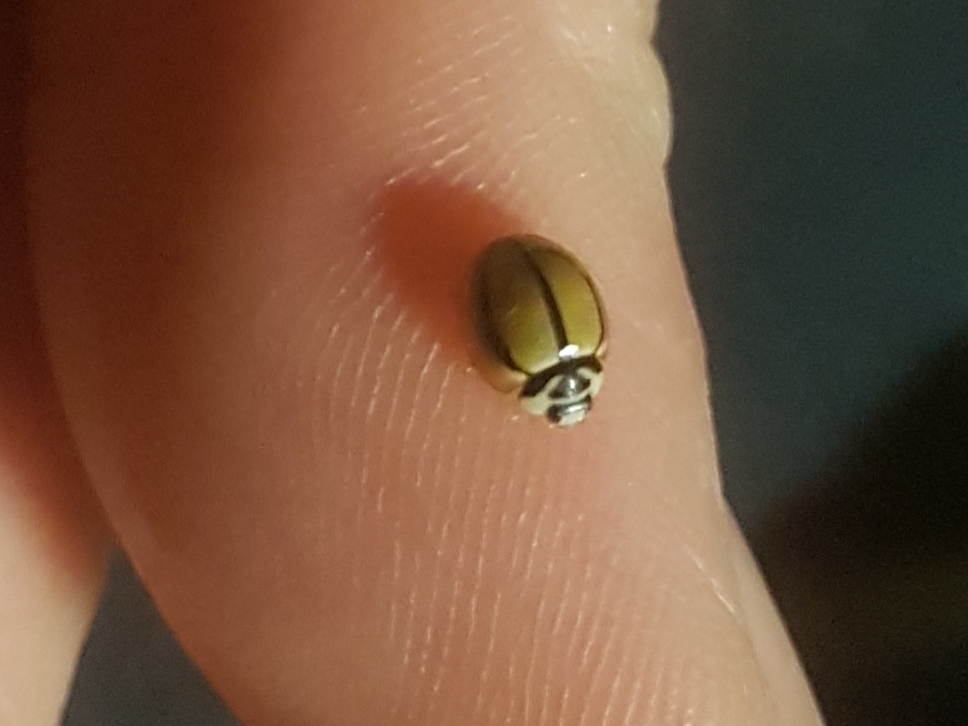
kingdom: Animalia
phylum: Arthropoda
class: Insecta
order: Coleoptera
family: Coccinellidae
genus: Cheilomenes
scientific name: Cheilomenes propinqua
